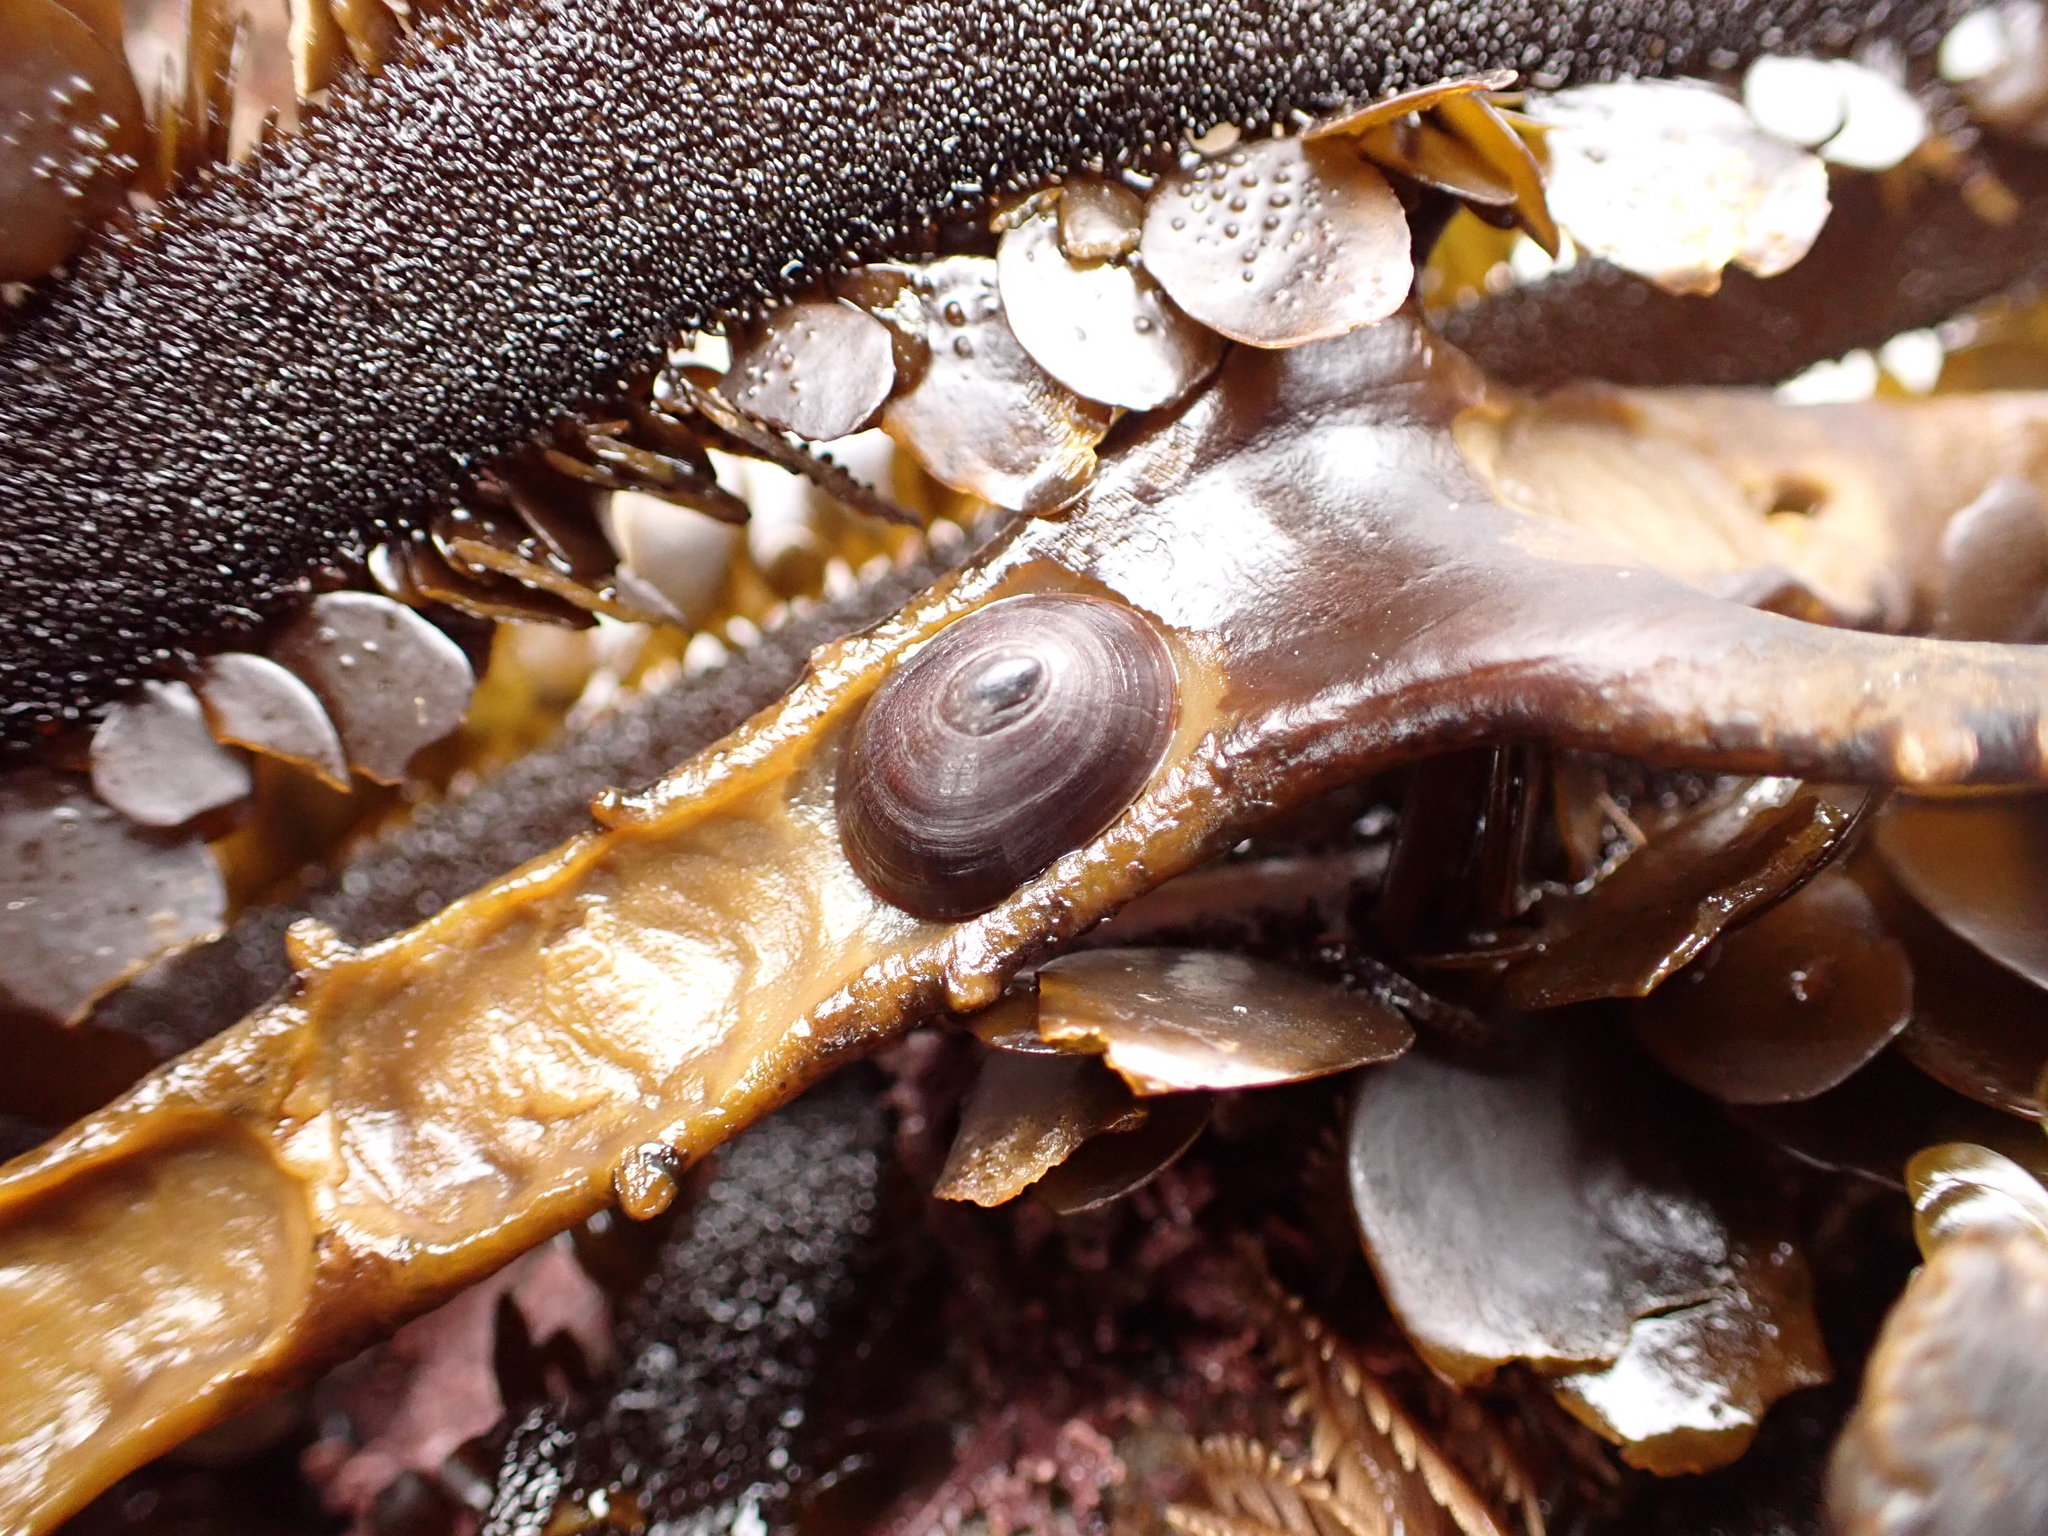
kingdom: Animalia
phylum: Mollusca
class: Gastropoda
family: Lottiidae
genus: Discurria
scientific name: Discurria insessa
